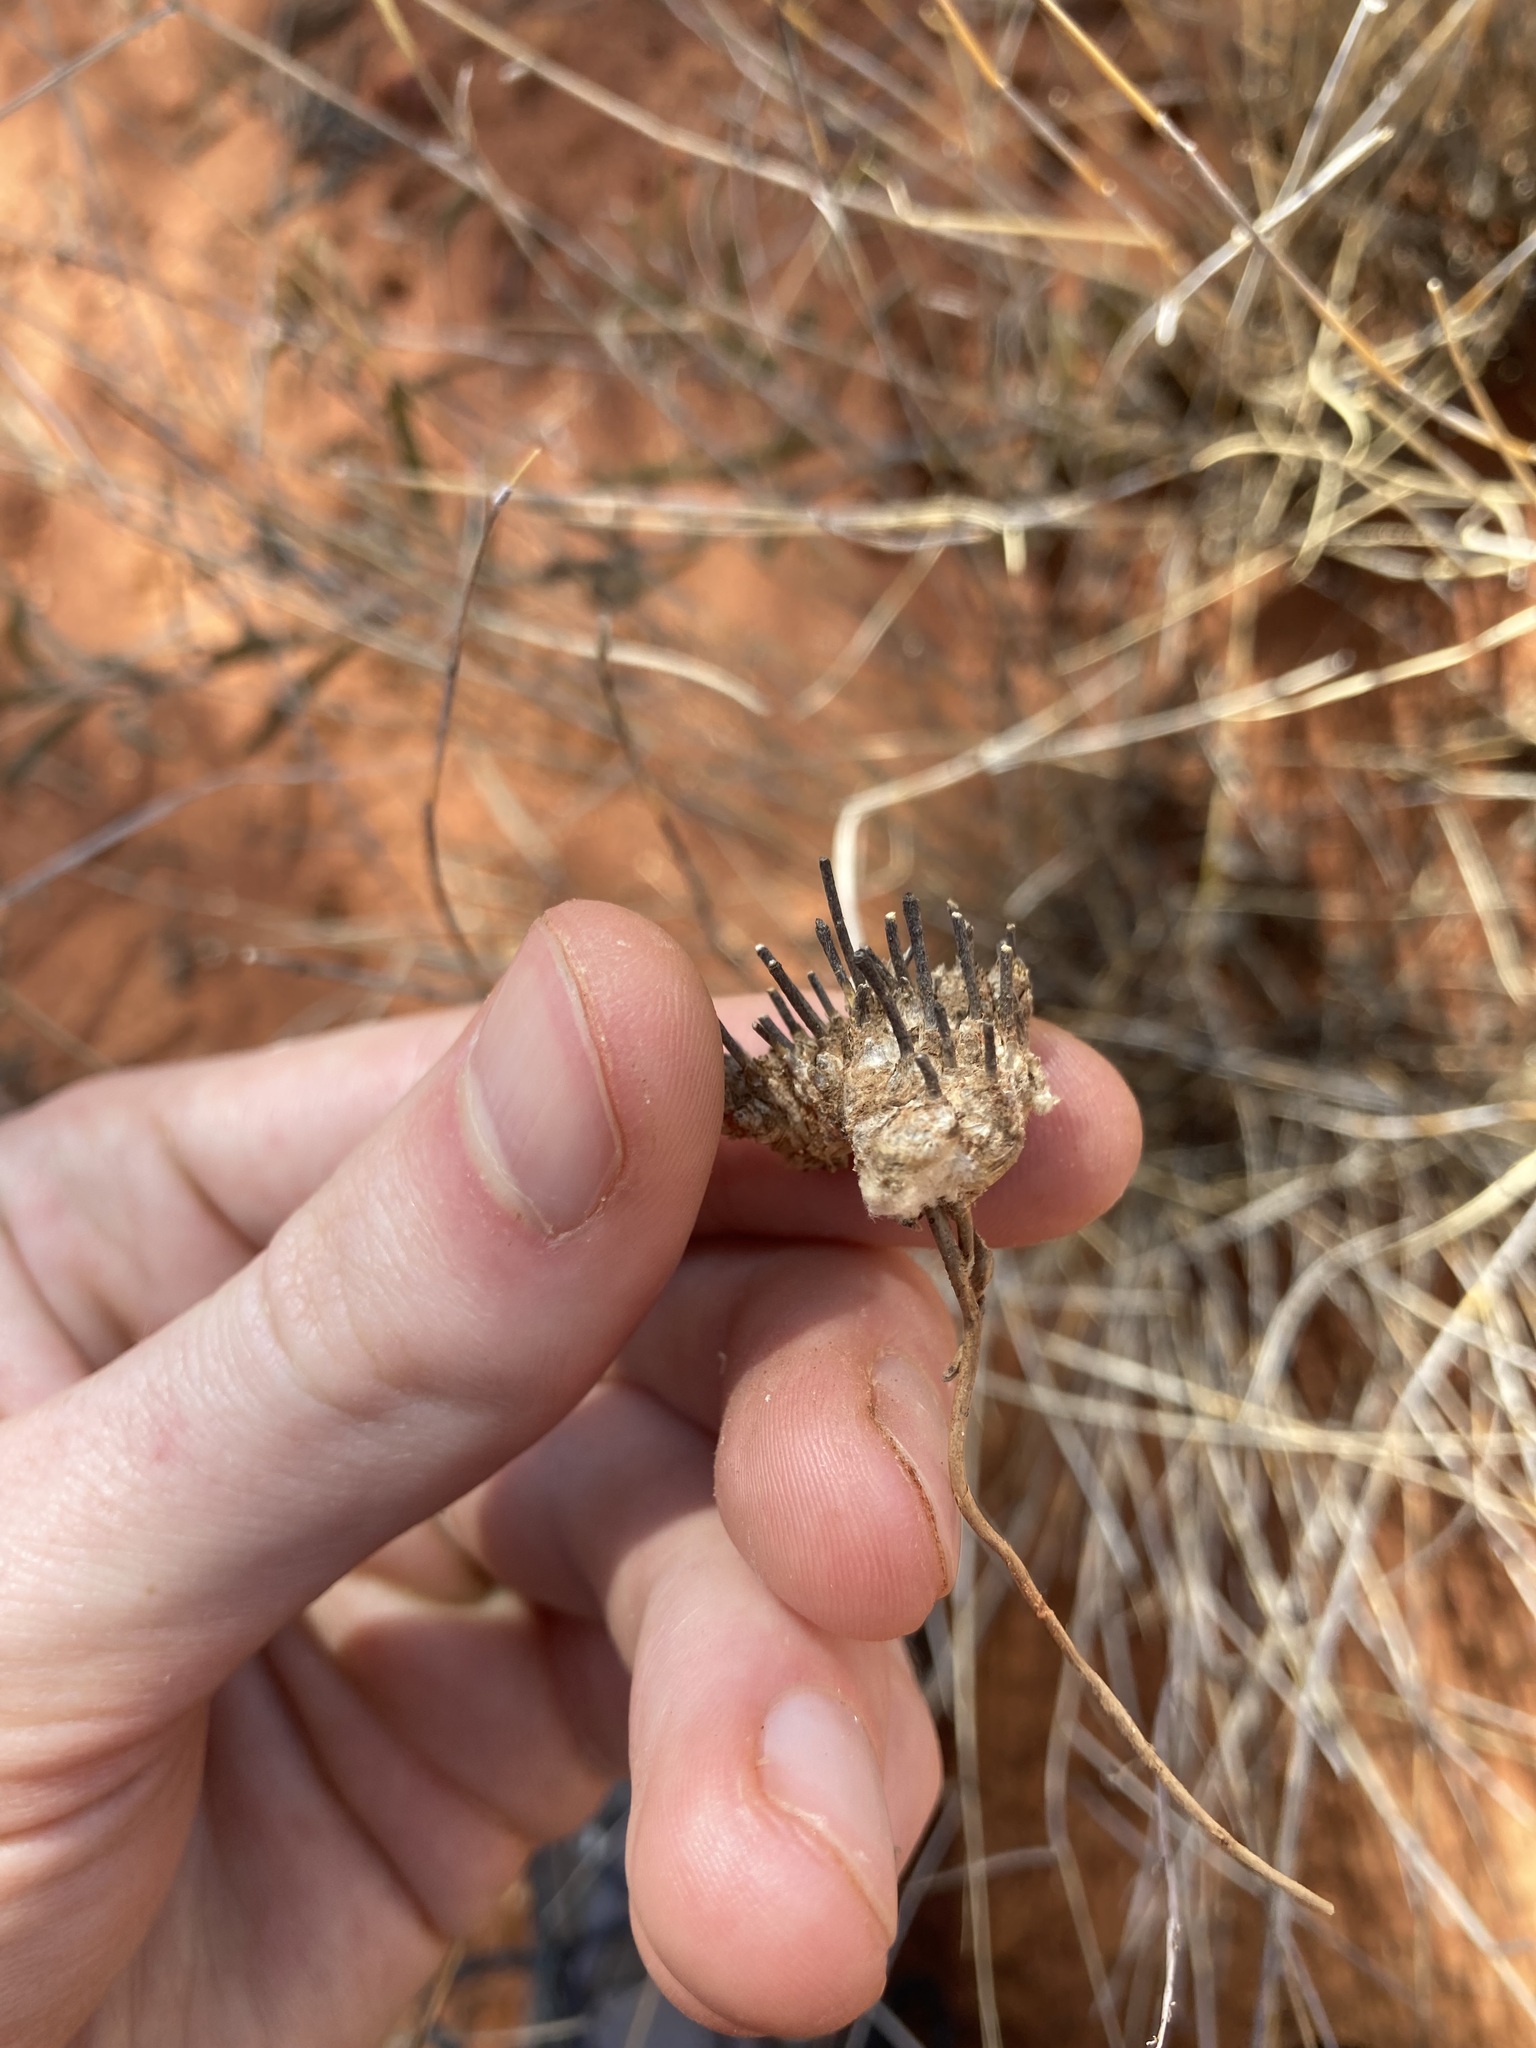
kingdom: Plantae
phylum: Tracheophyta
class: Liliopsida
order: Poales
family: Poaceae
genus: Eragrostis
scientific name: Eragrostis eriopoda
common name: Plain neverfail
